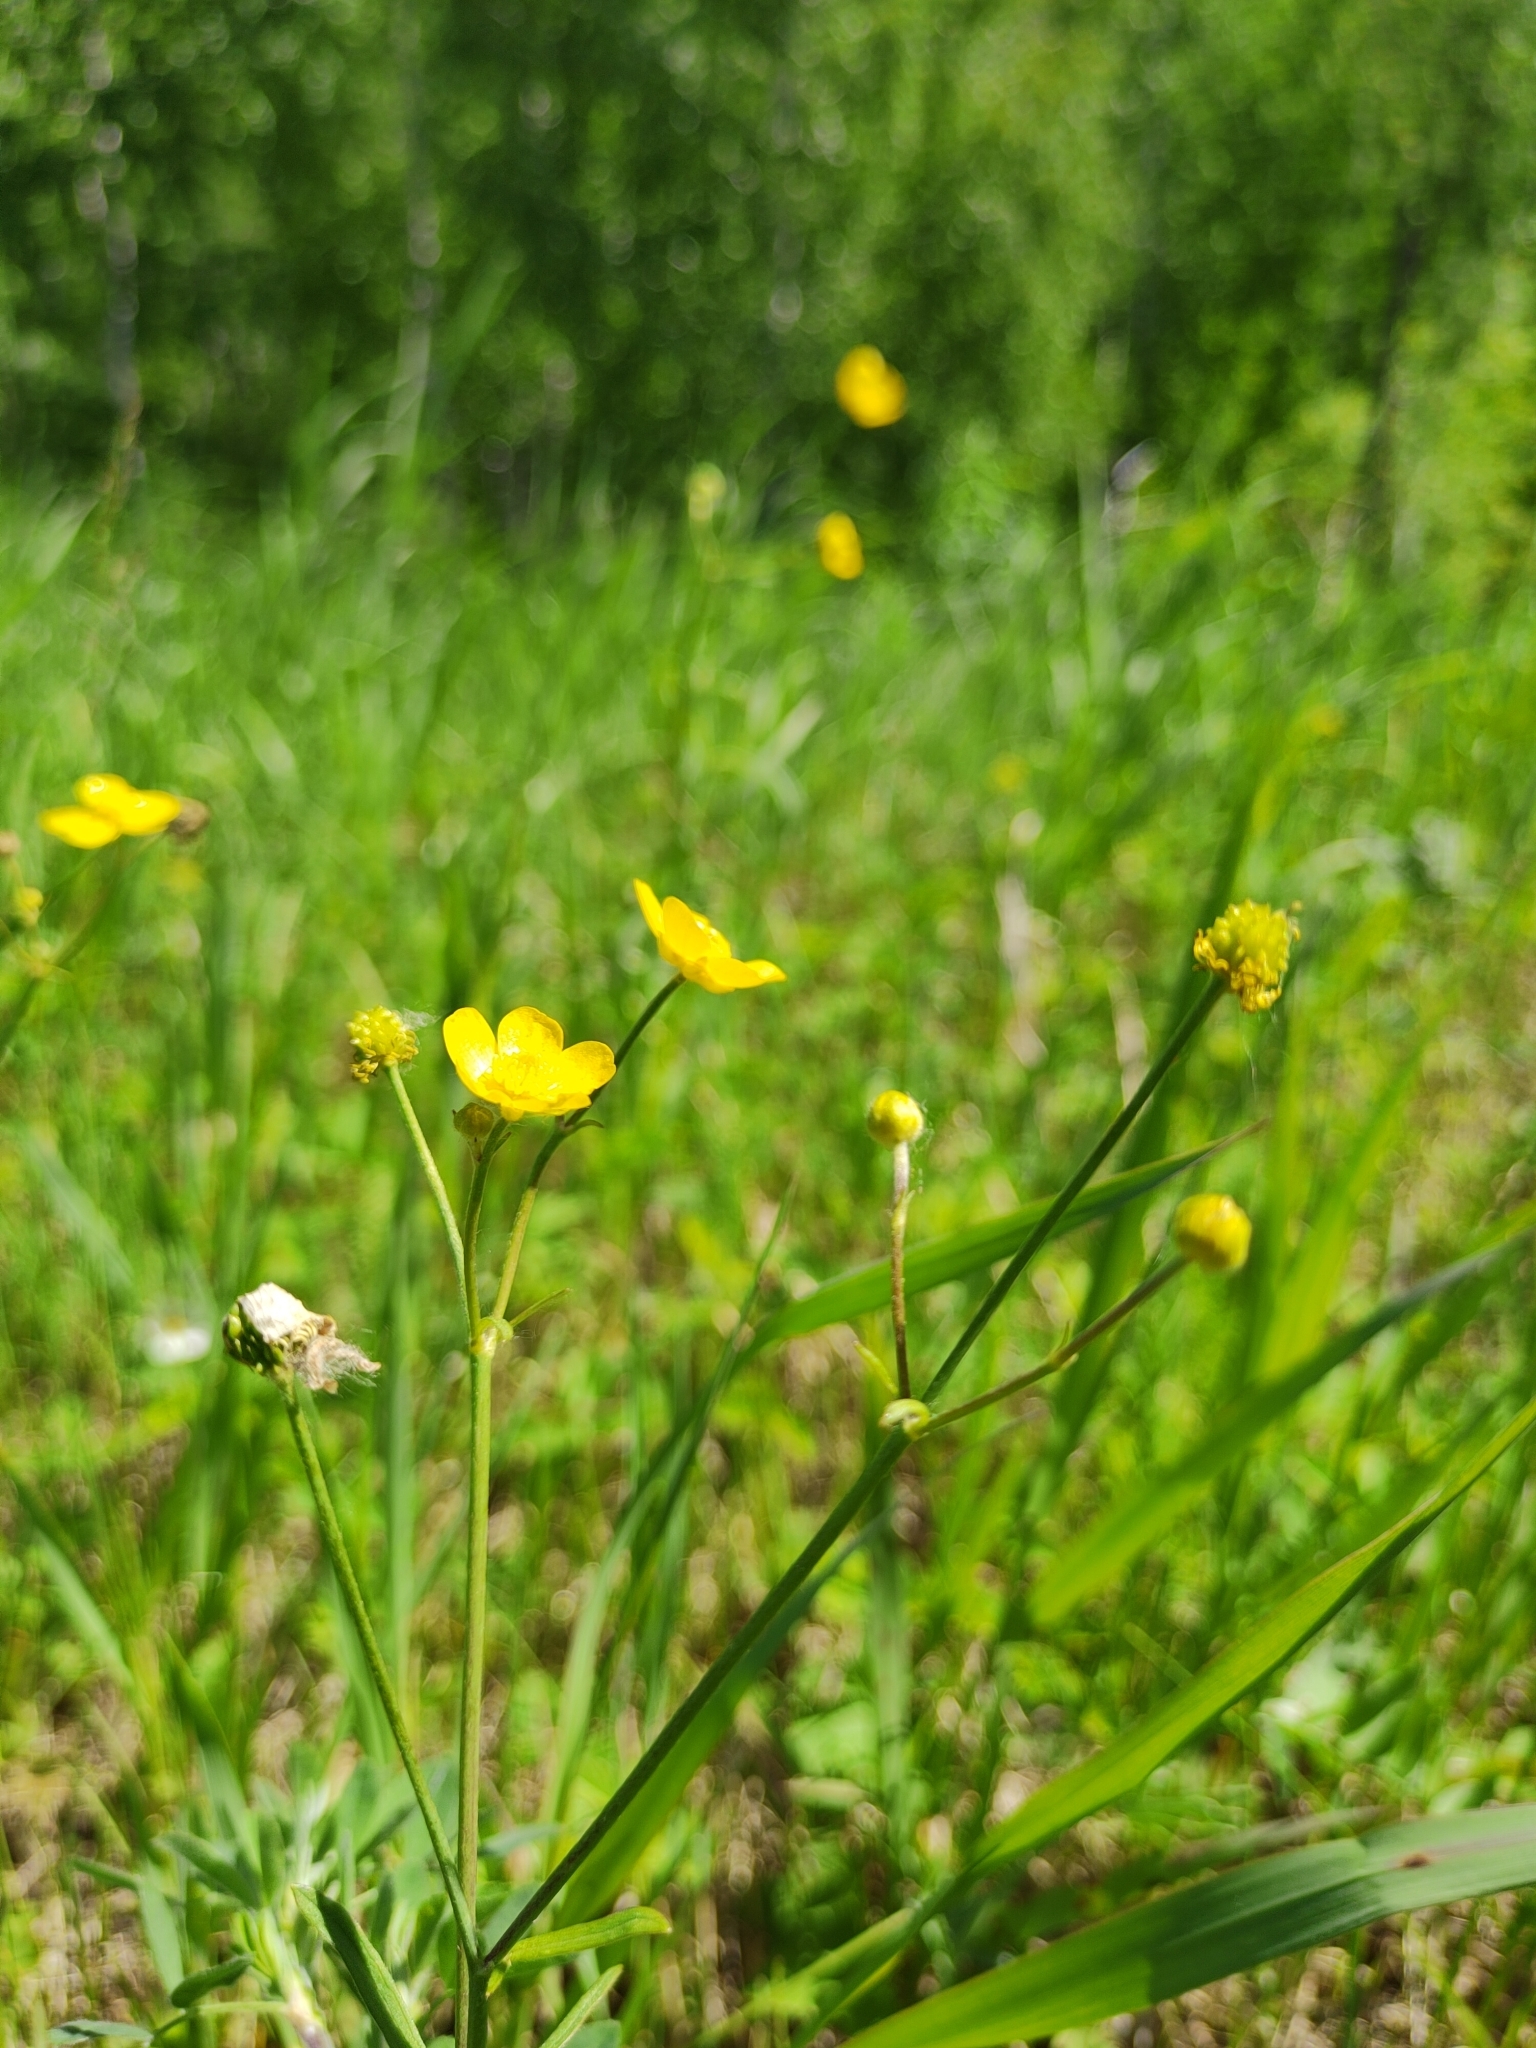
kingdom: Plantae
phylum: Tracheophyta
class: Magnoliopsida
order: Ranunculales
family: Ranunculaceae
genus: Ranunculus
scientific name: Ranunculus acris
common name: Meadow buttercup
